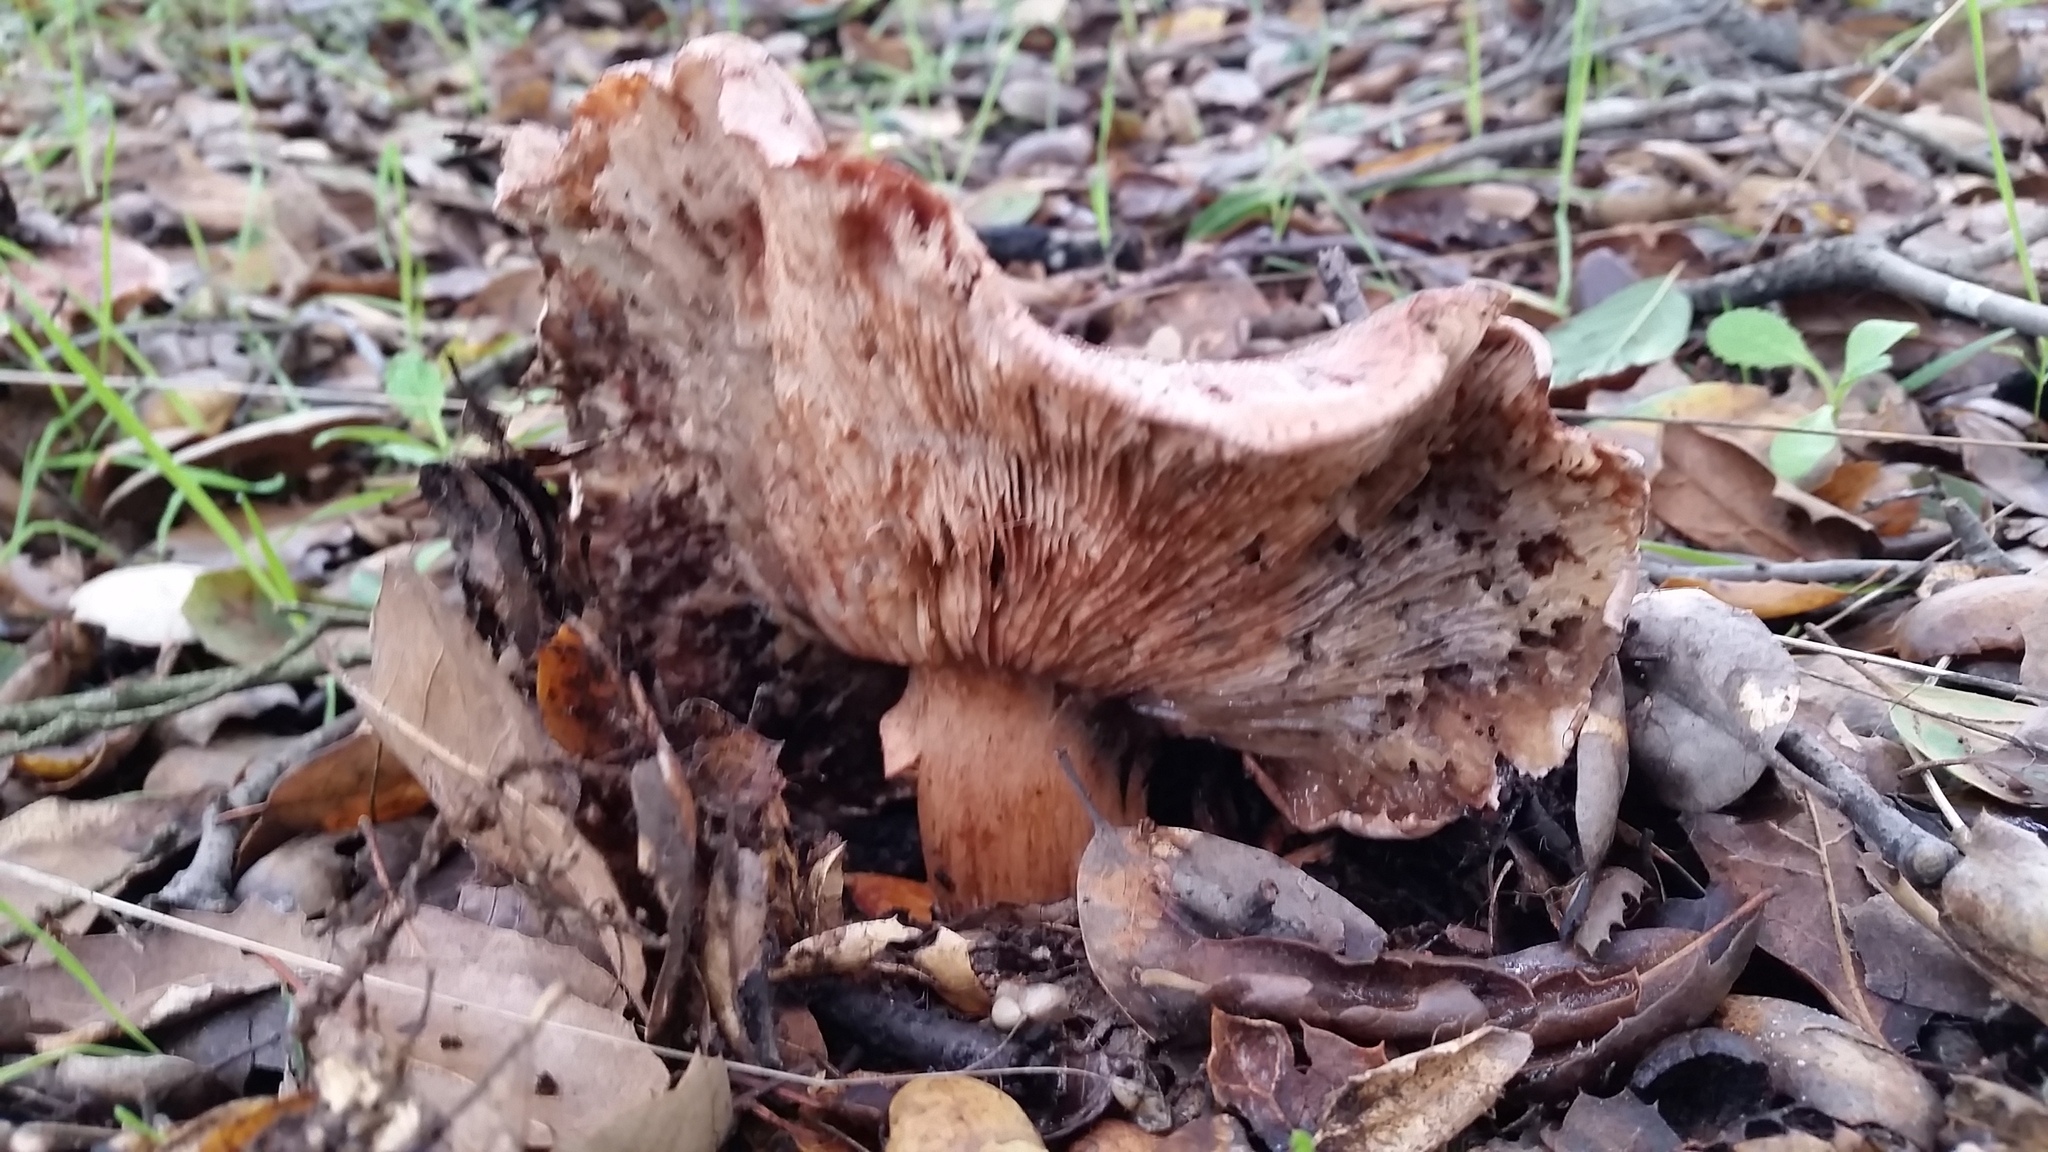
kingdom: Fungi
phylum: Basidiomycota
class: Agaricomycetes
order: Agaricales
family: Tricholomataceae
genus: Melanoleuca
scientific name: Melanoleuca dryophila
